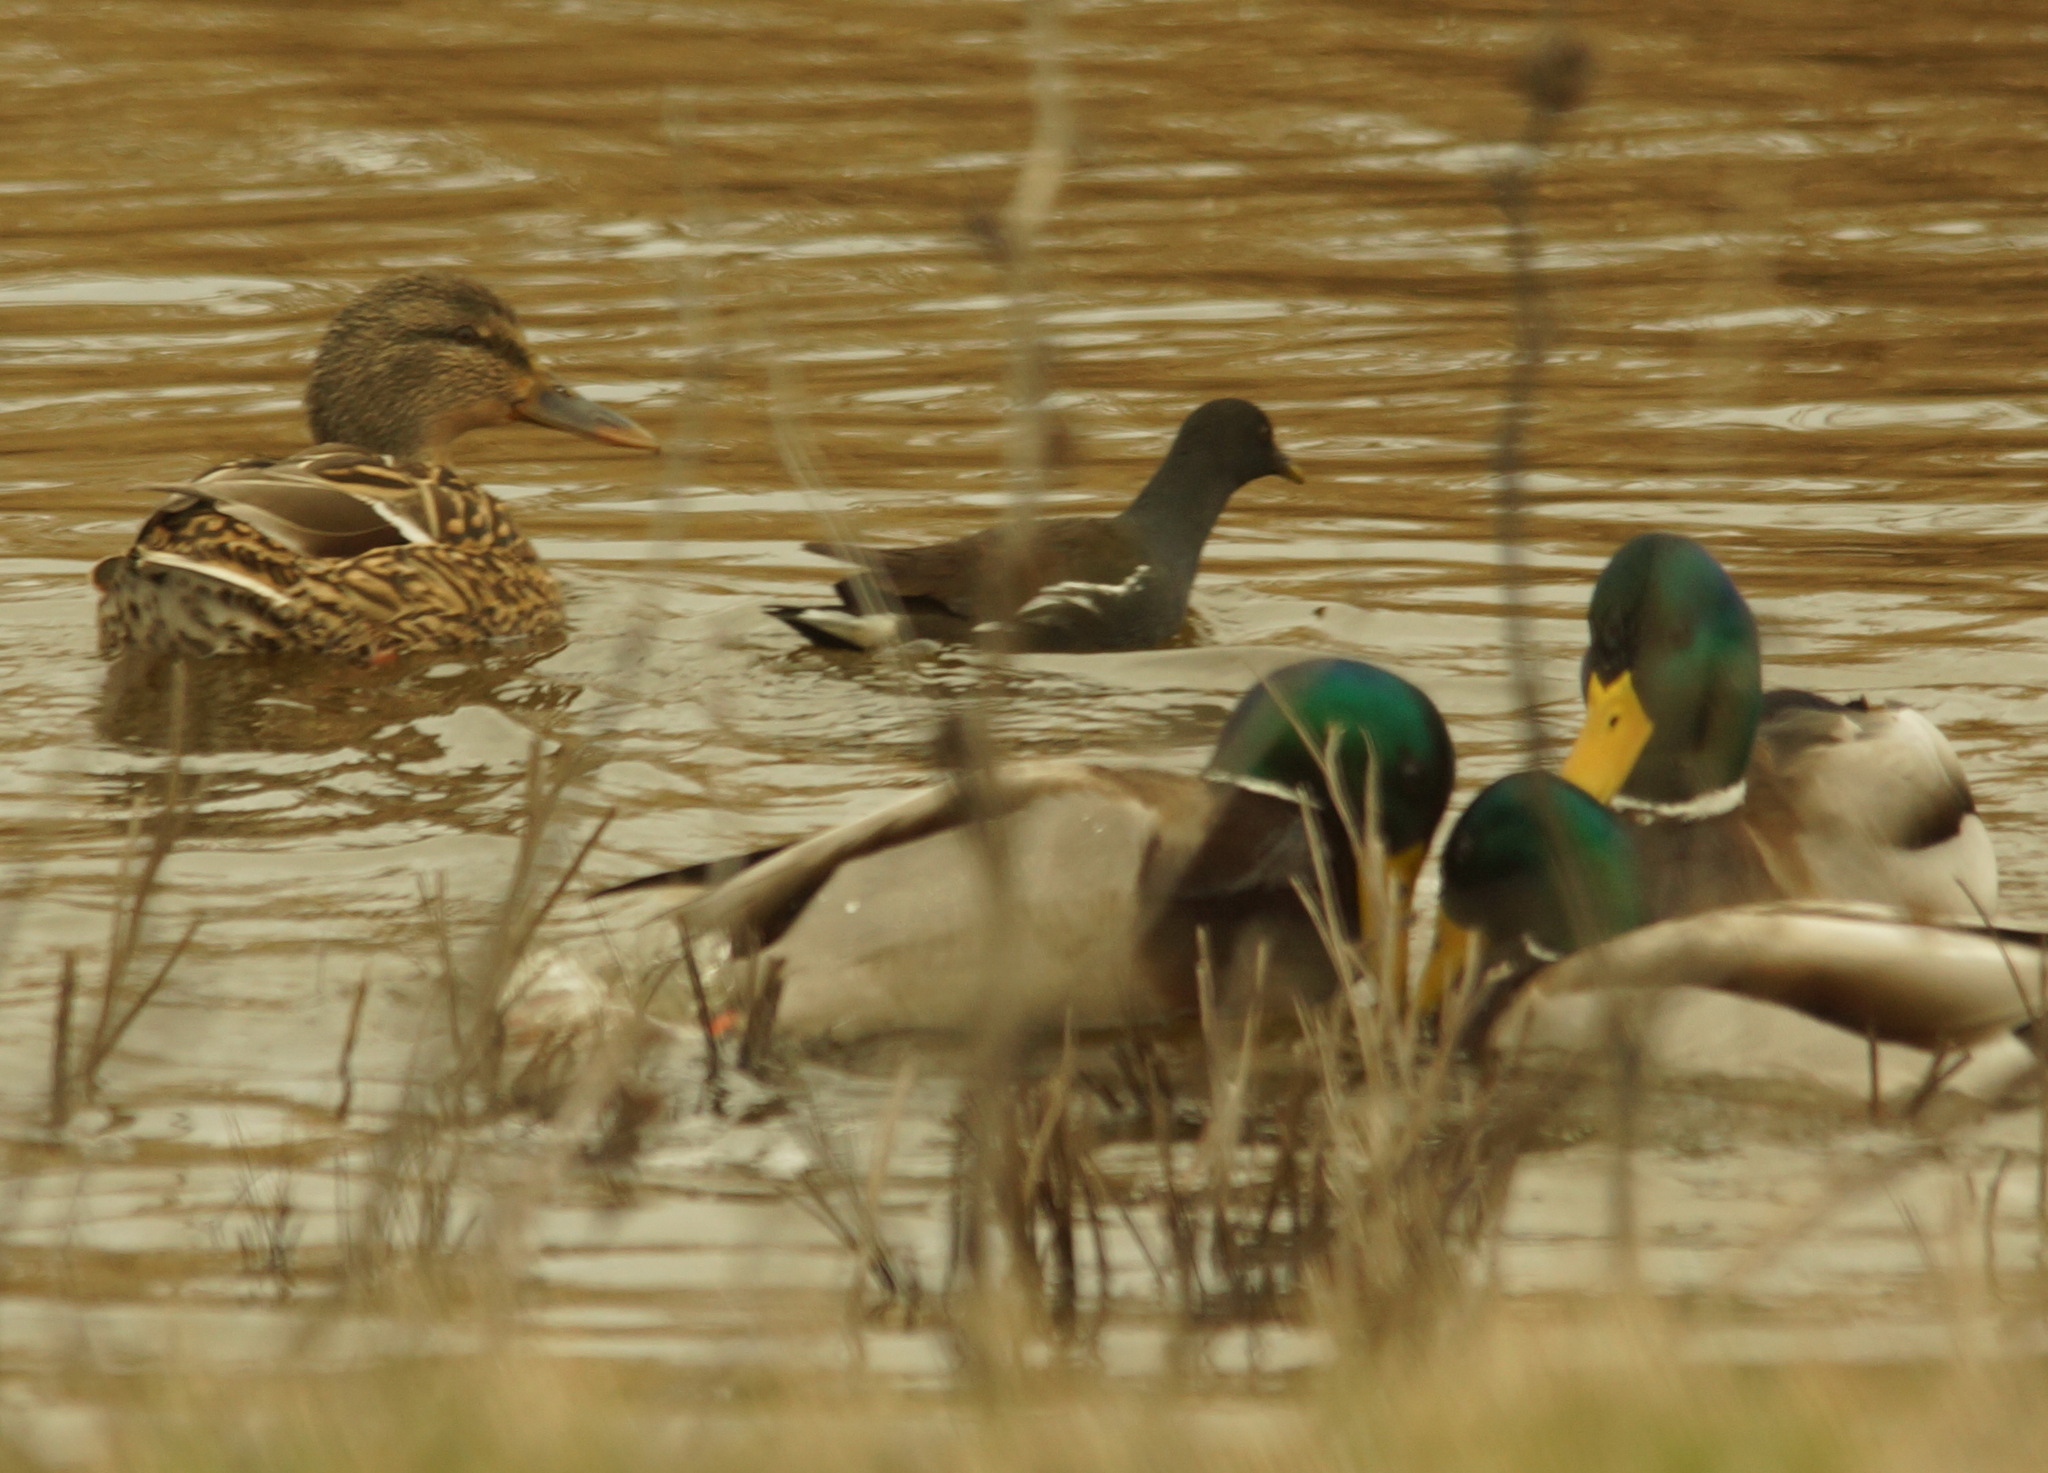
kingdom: Animalia
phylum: Chordata
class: Aves
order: Gruiformes
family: Rallidae
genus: Gallinula
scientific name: Gallinula chloropus
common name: Common moorhen
